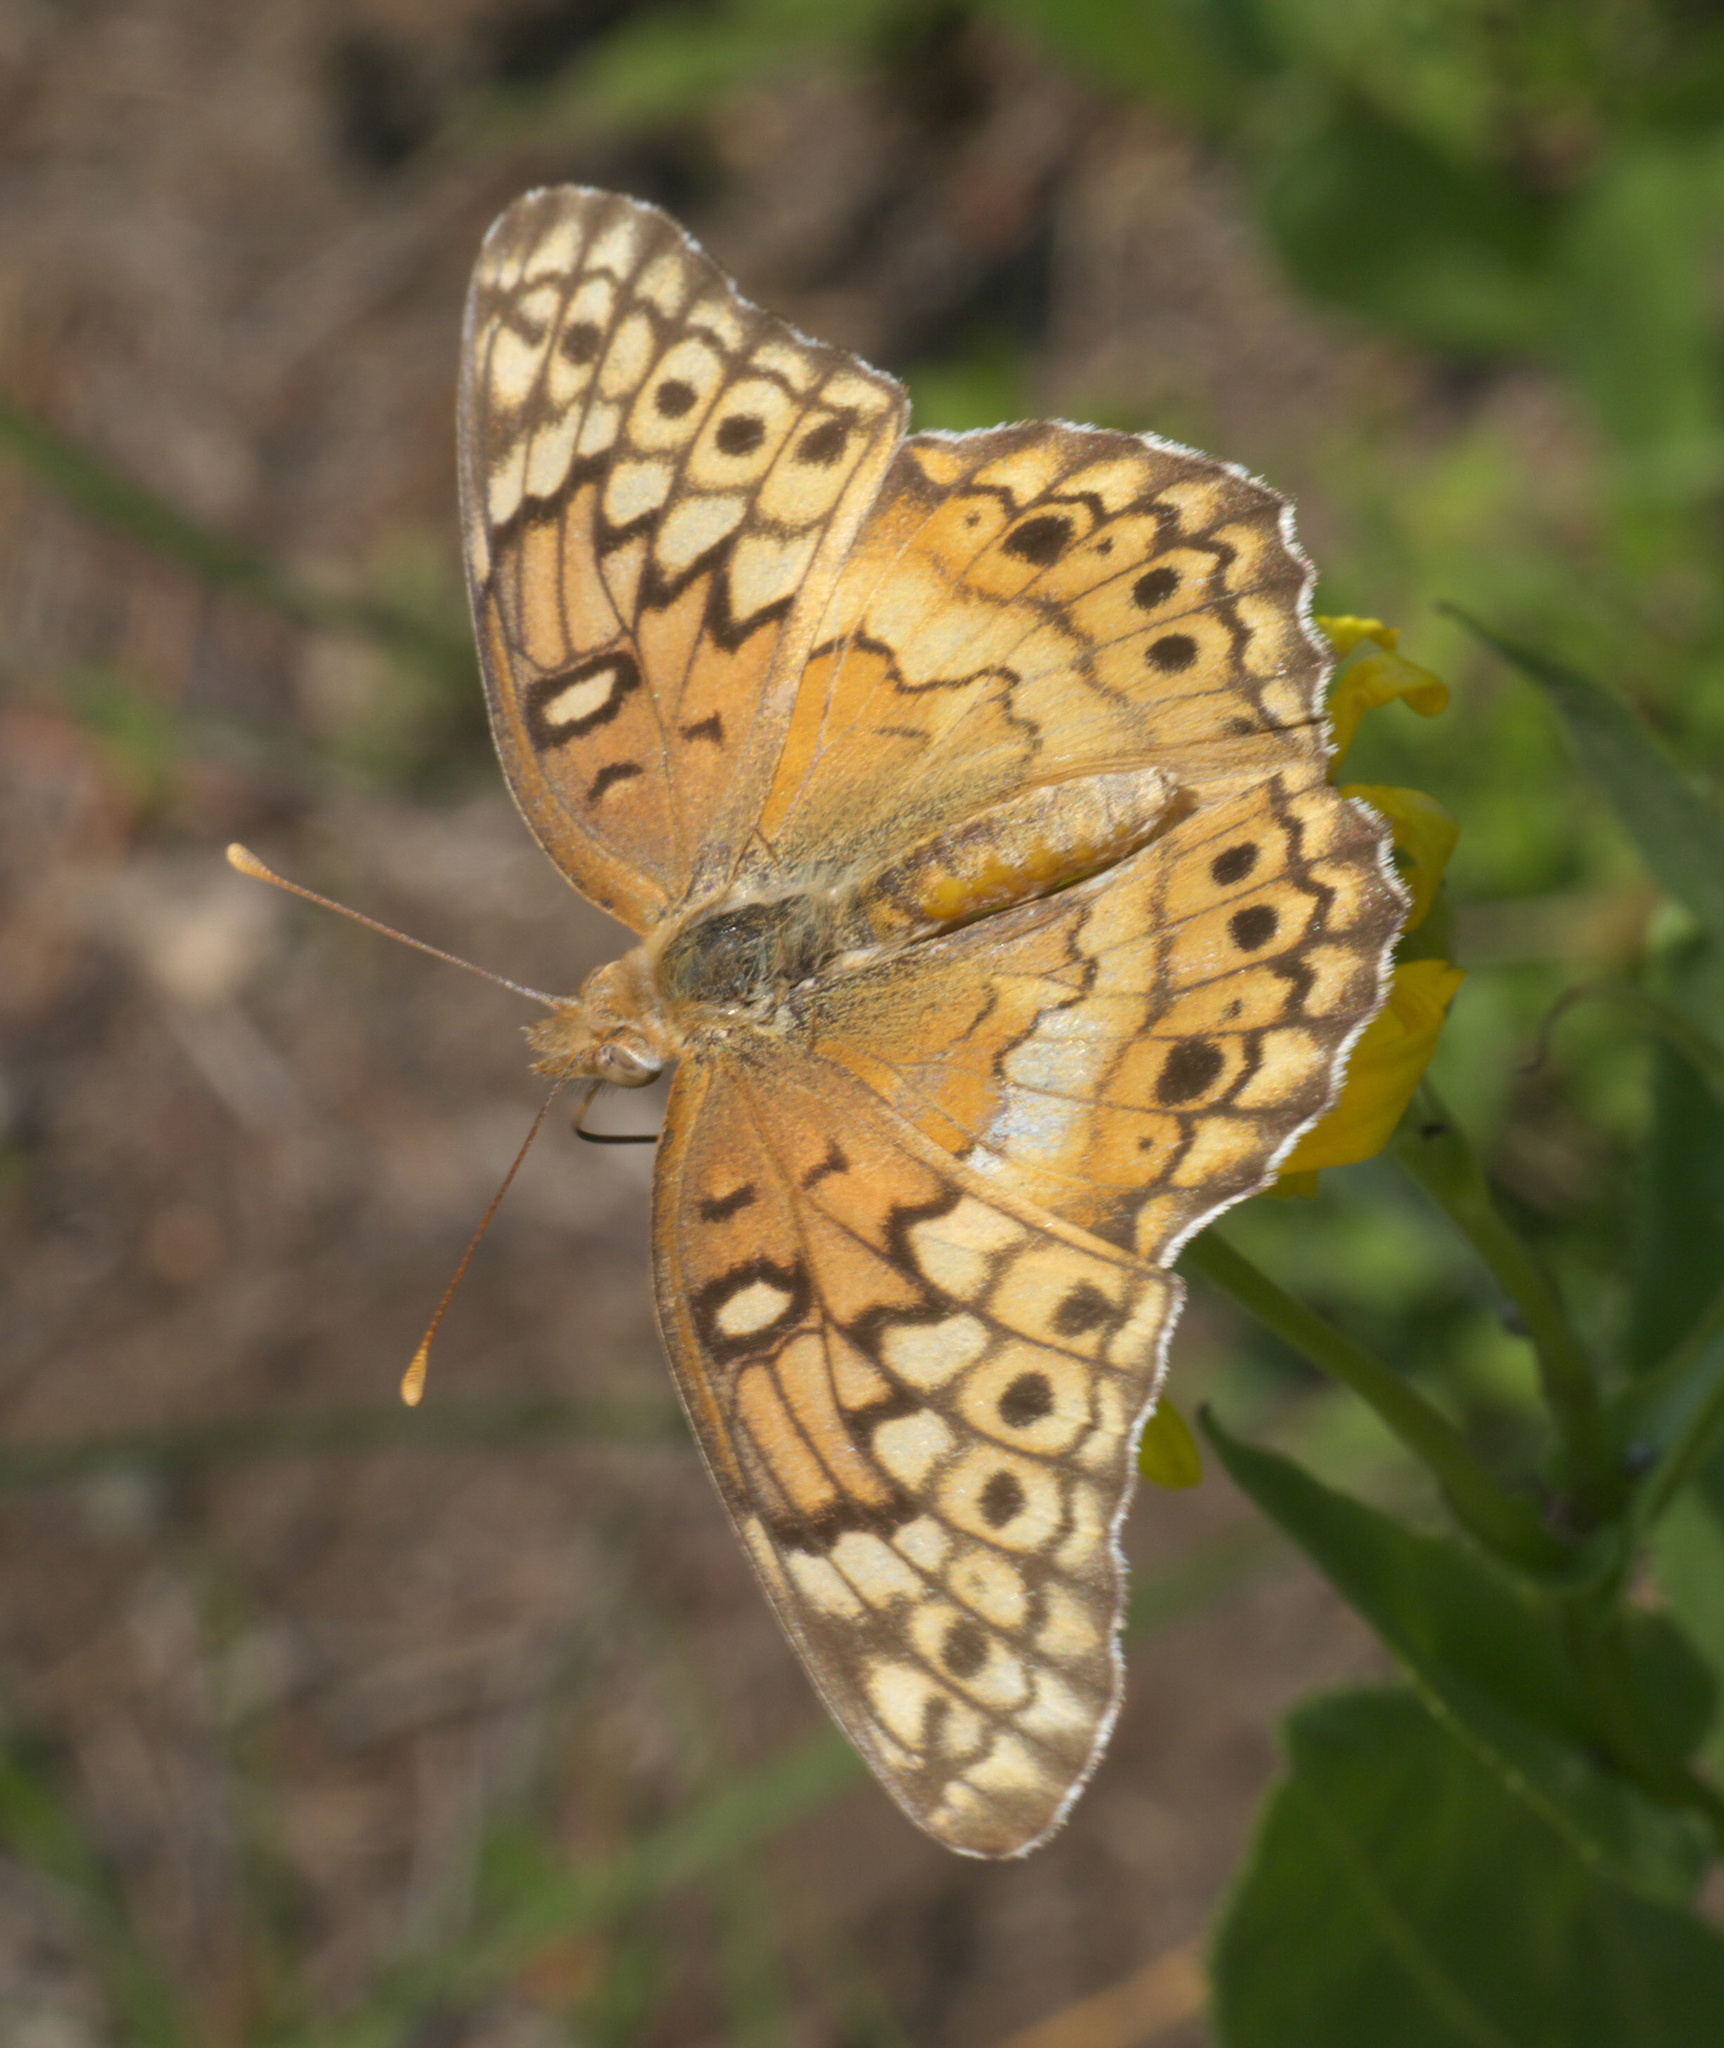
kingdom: Animalia
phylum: Arthropoda
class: Insecta
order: Lepidoptera
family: Nymphalidae
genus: Euptoieta
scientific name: Euptoieta claudia
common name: Variegated fritillary
